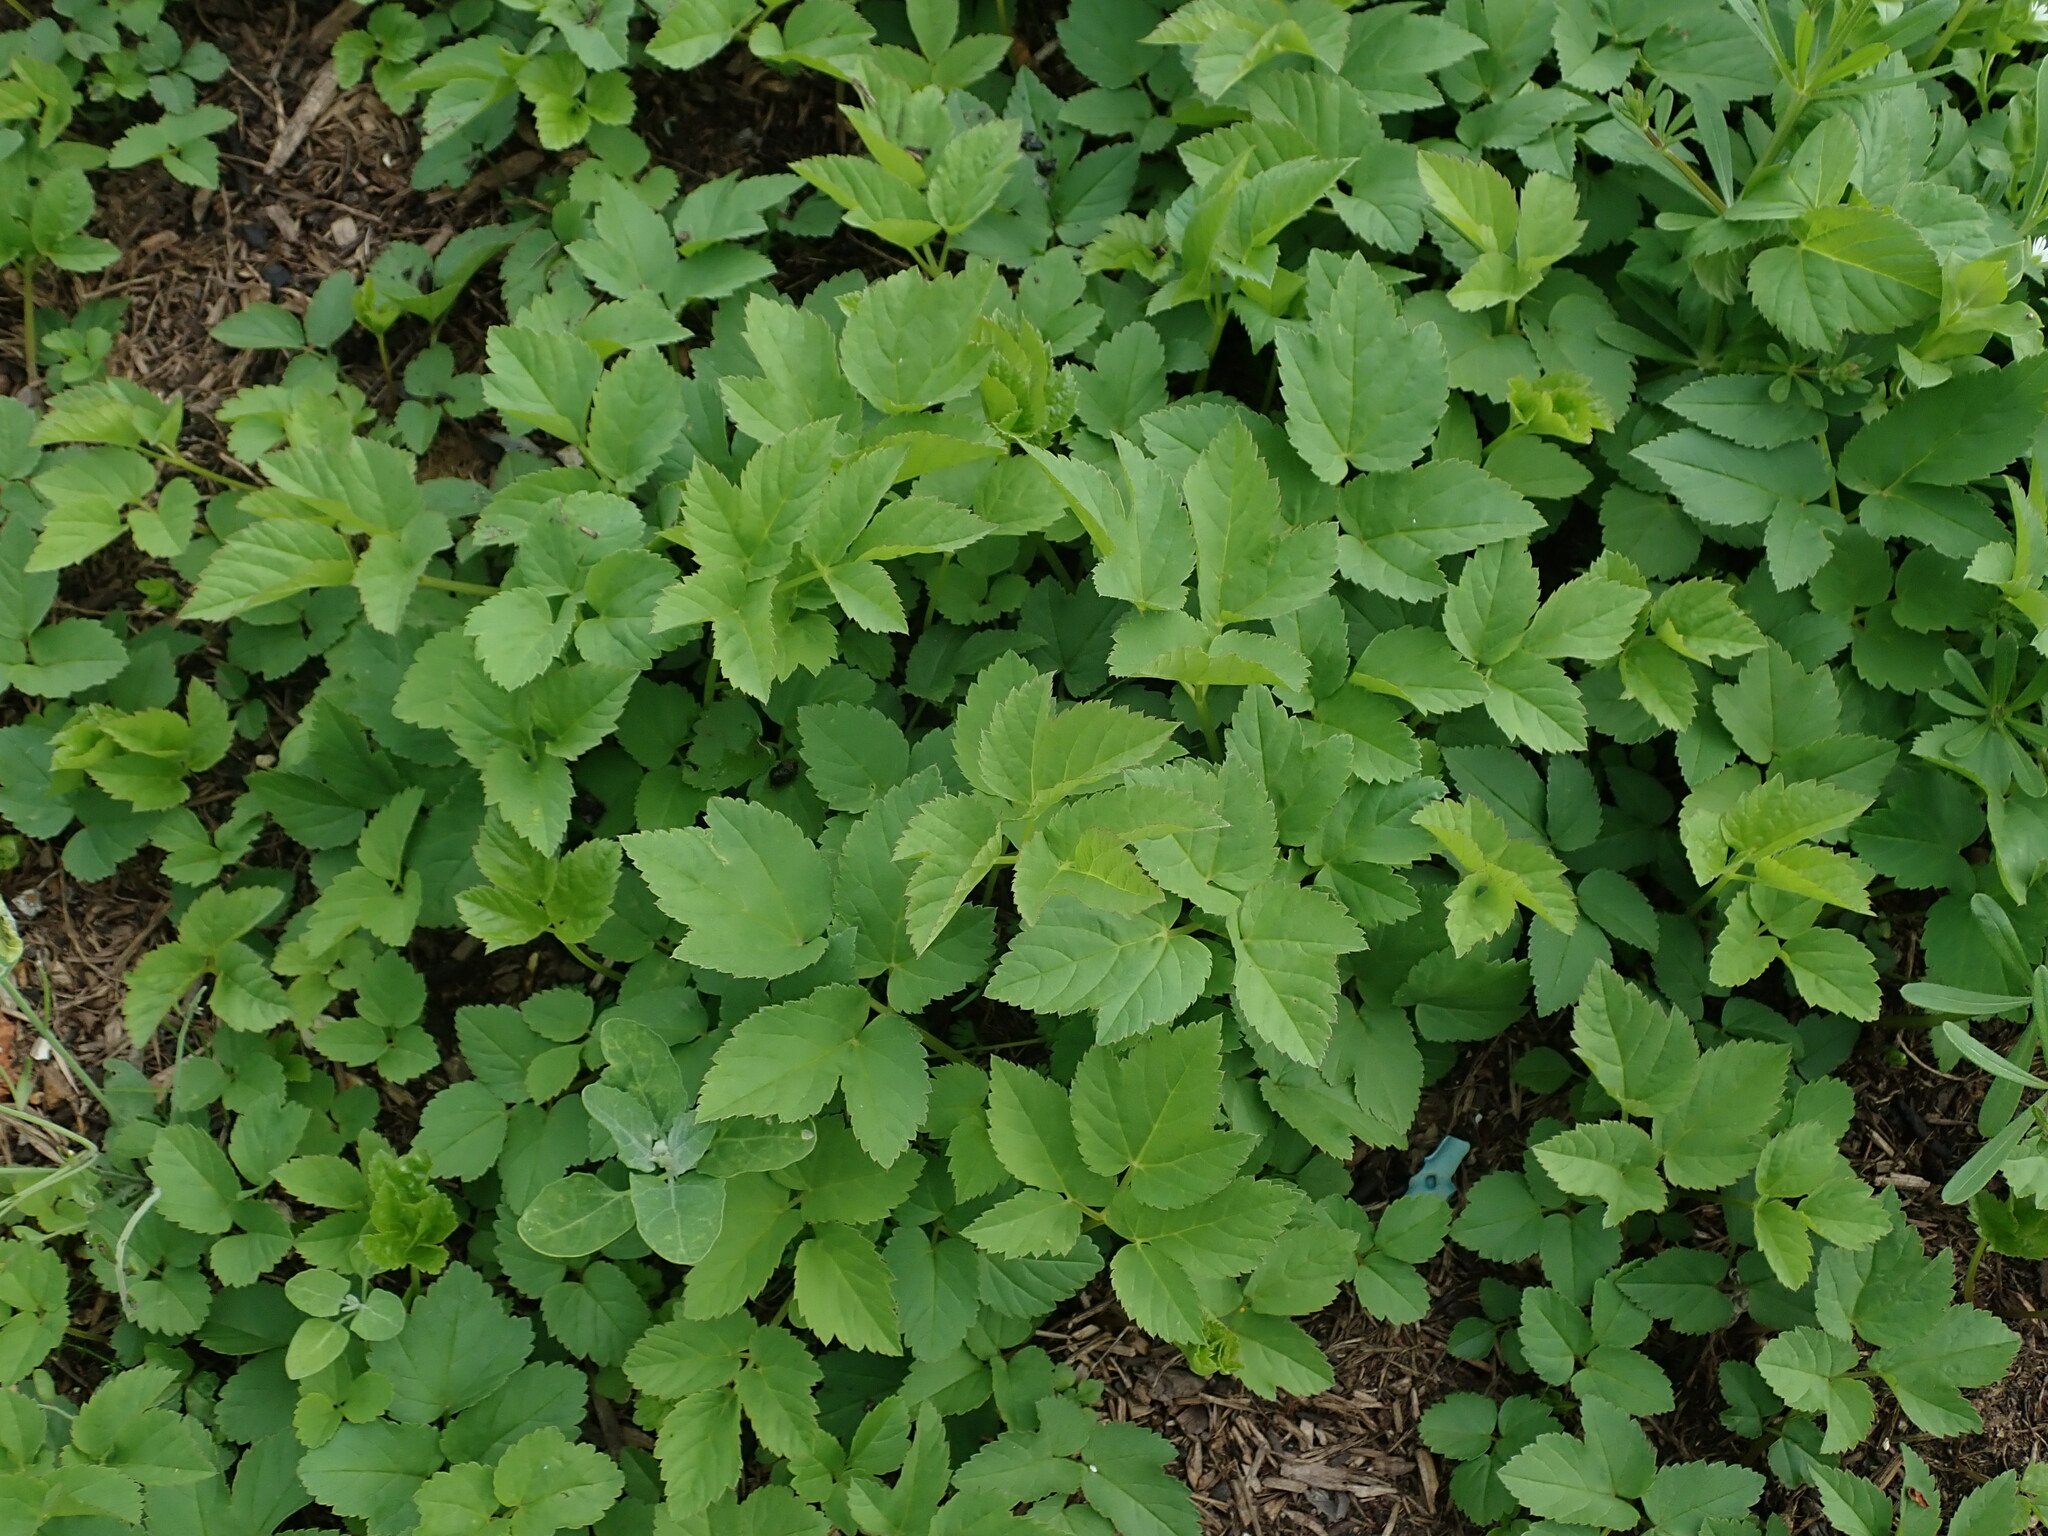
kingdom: Plantae
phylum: Tracheophyta
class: Magnoliopsida
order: Apiales
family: Apiaceae
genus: Aegopodium
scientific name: Aegopodium podagraria
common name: Ground-elder
